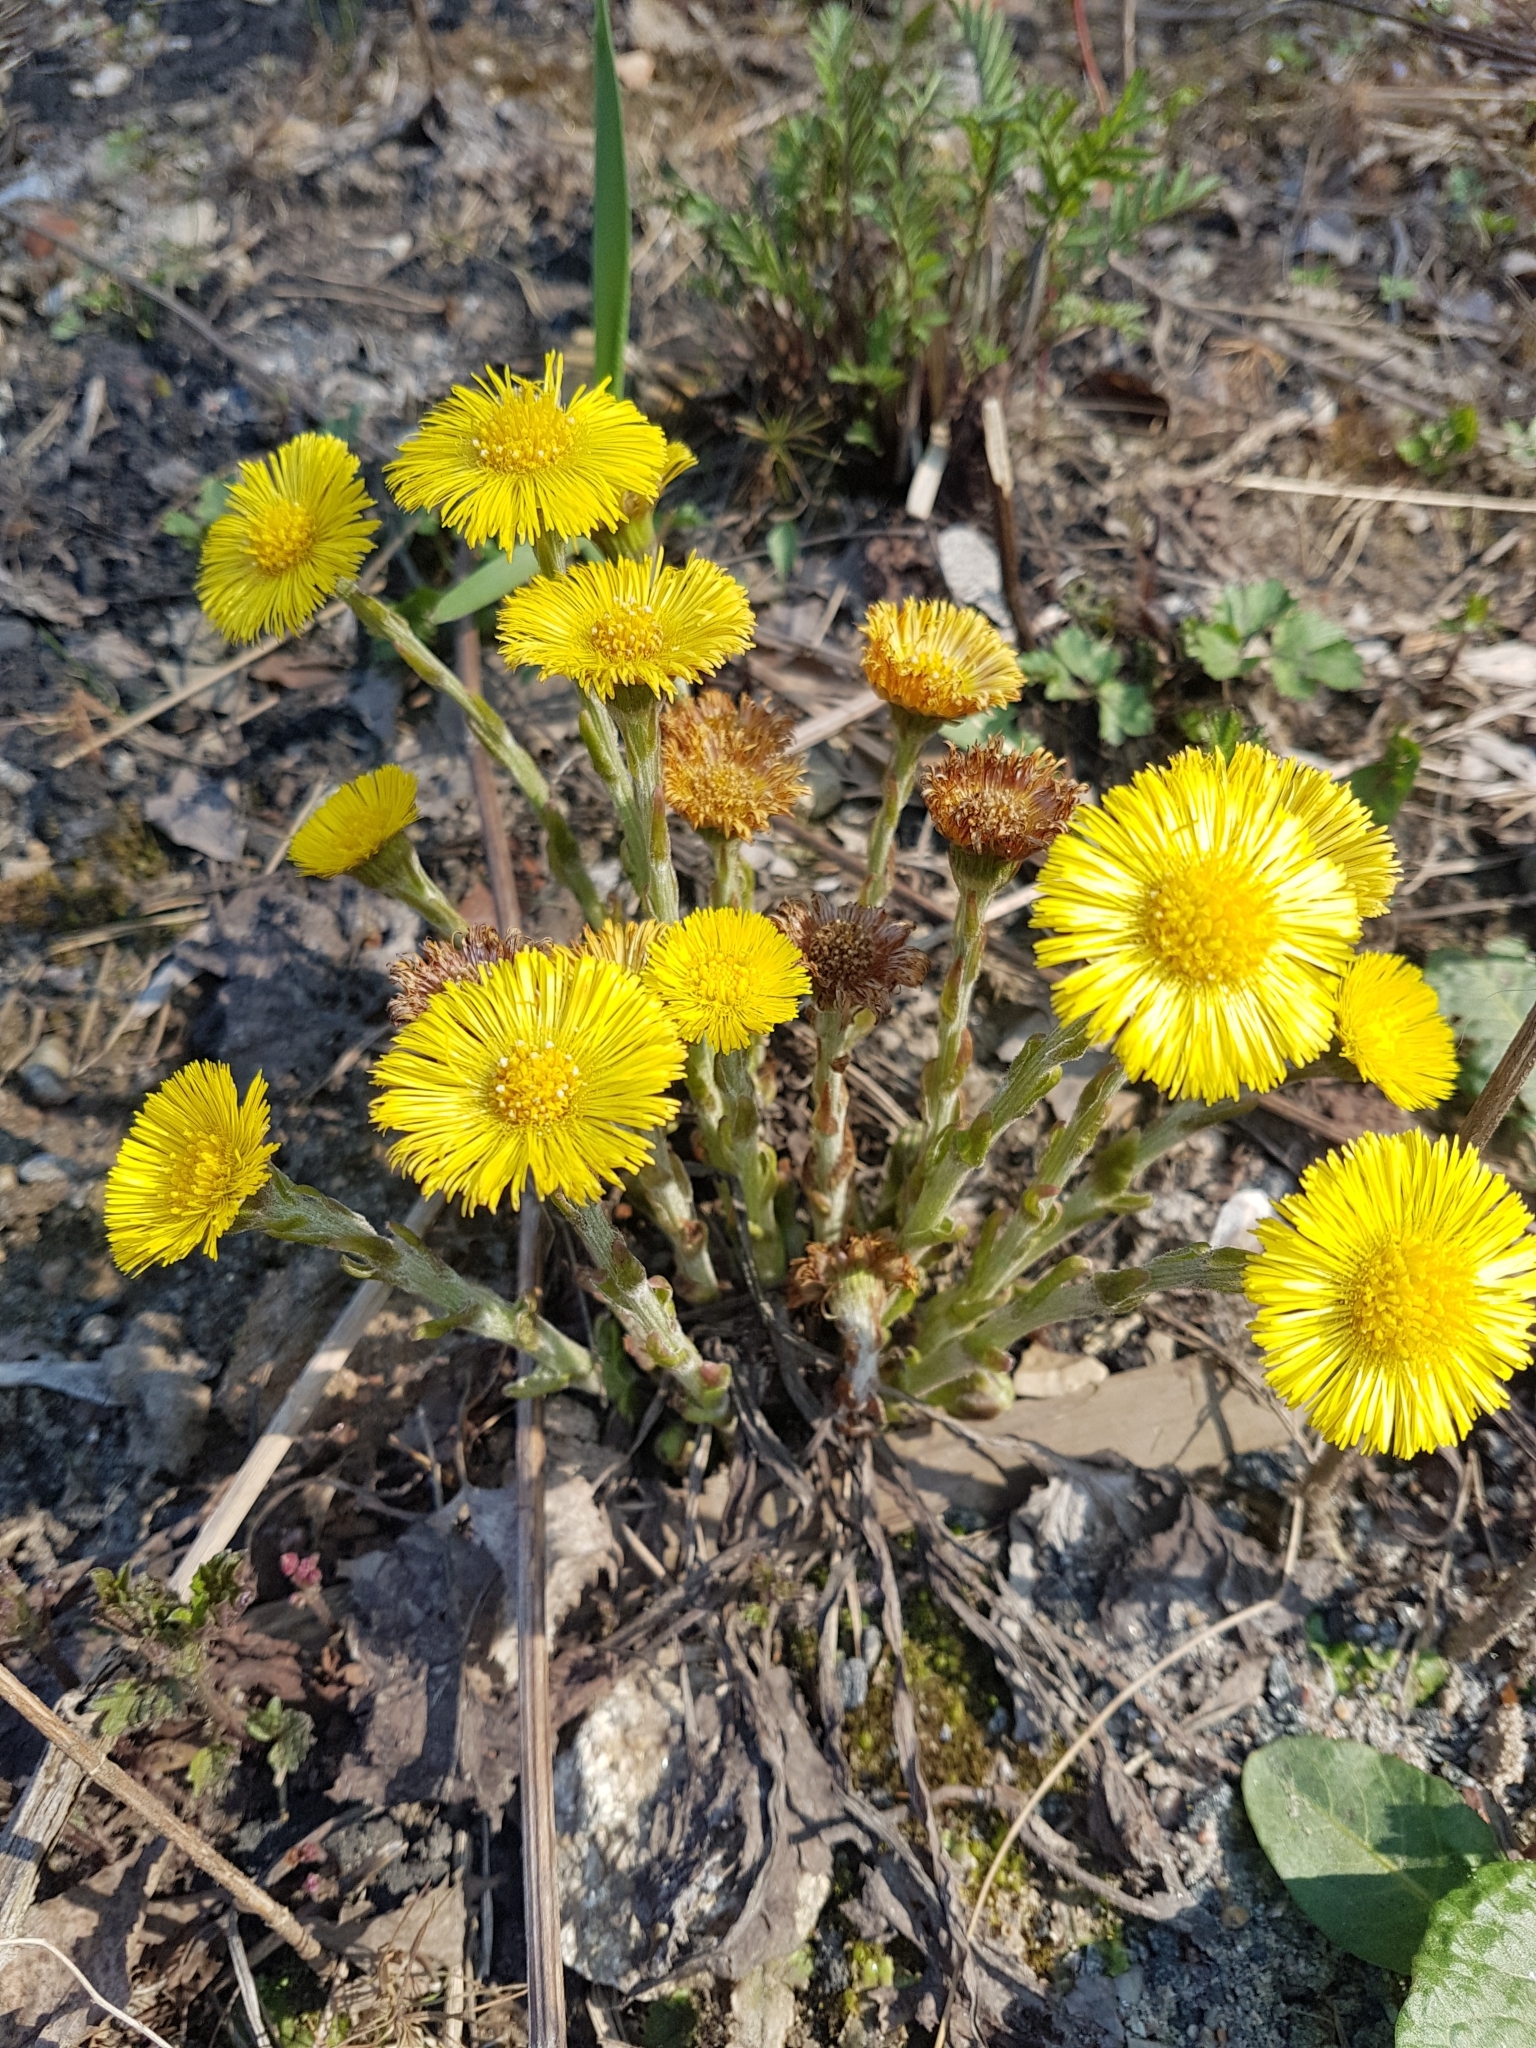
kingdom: Plantae
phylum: Tracheophyta
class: Magnoliopsida
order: Asterales
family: Asteraceae
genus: Tussilago
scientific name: Tussilago farfara
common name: Coltsfoot
